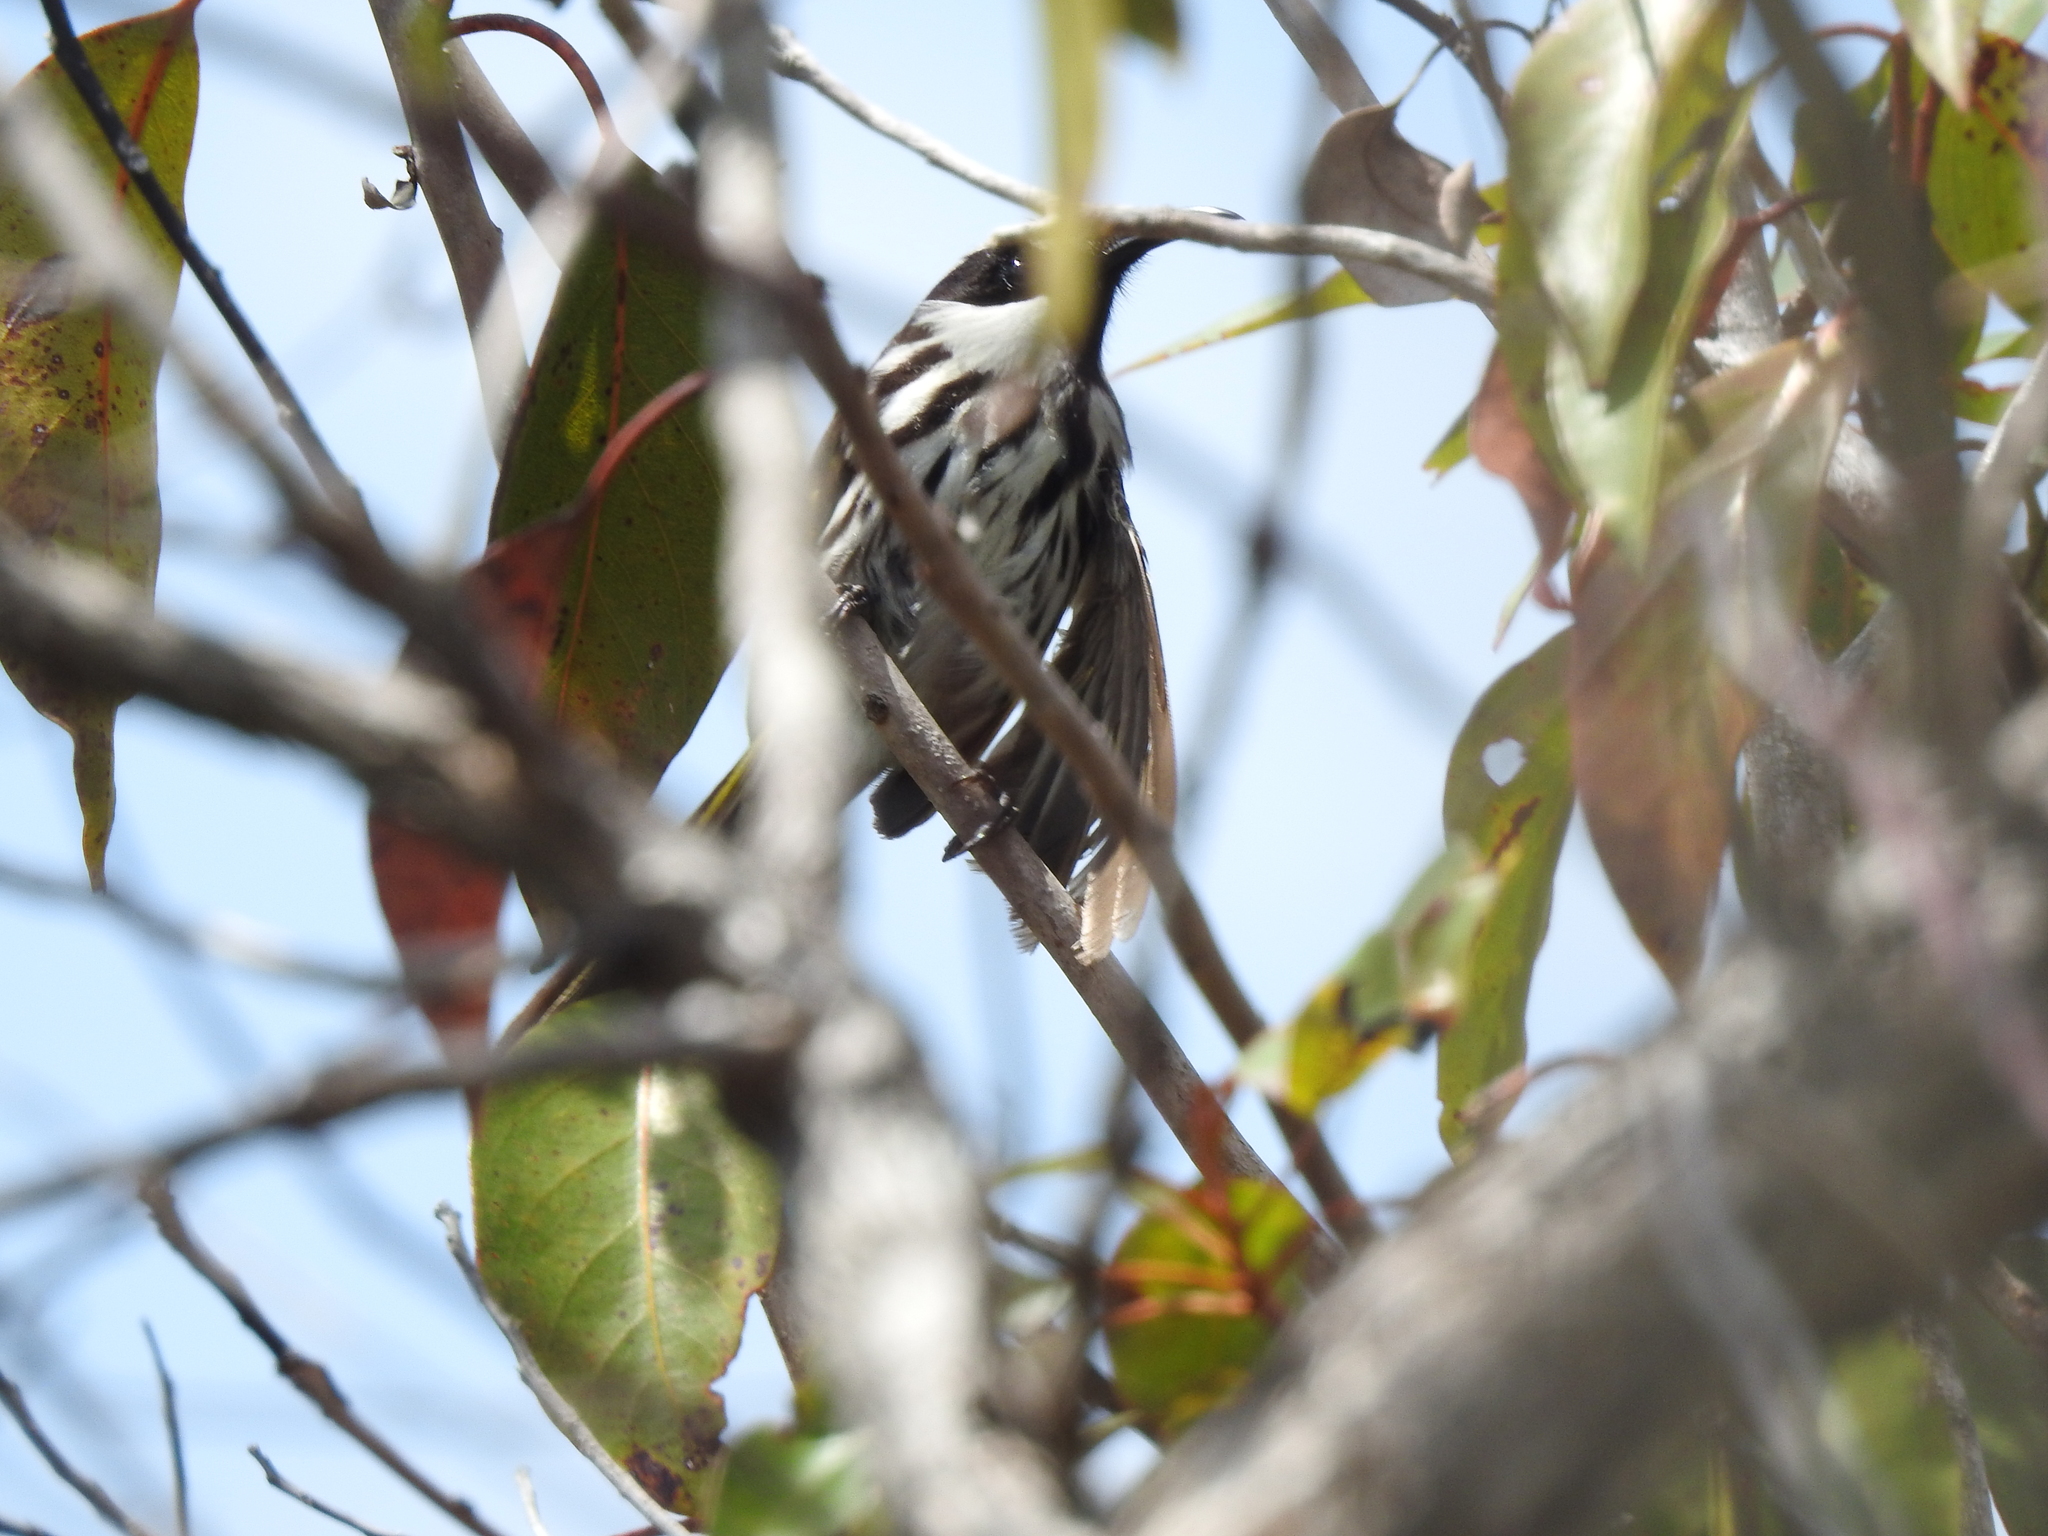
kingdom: Animalia
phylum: Chordata
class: Aves
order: Passeriformes
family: Meliphagidae
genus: Phylidonyris
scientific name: Phylidonyris niger
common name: White-cheeked honeyeater
